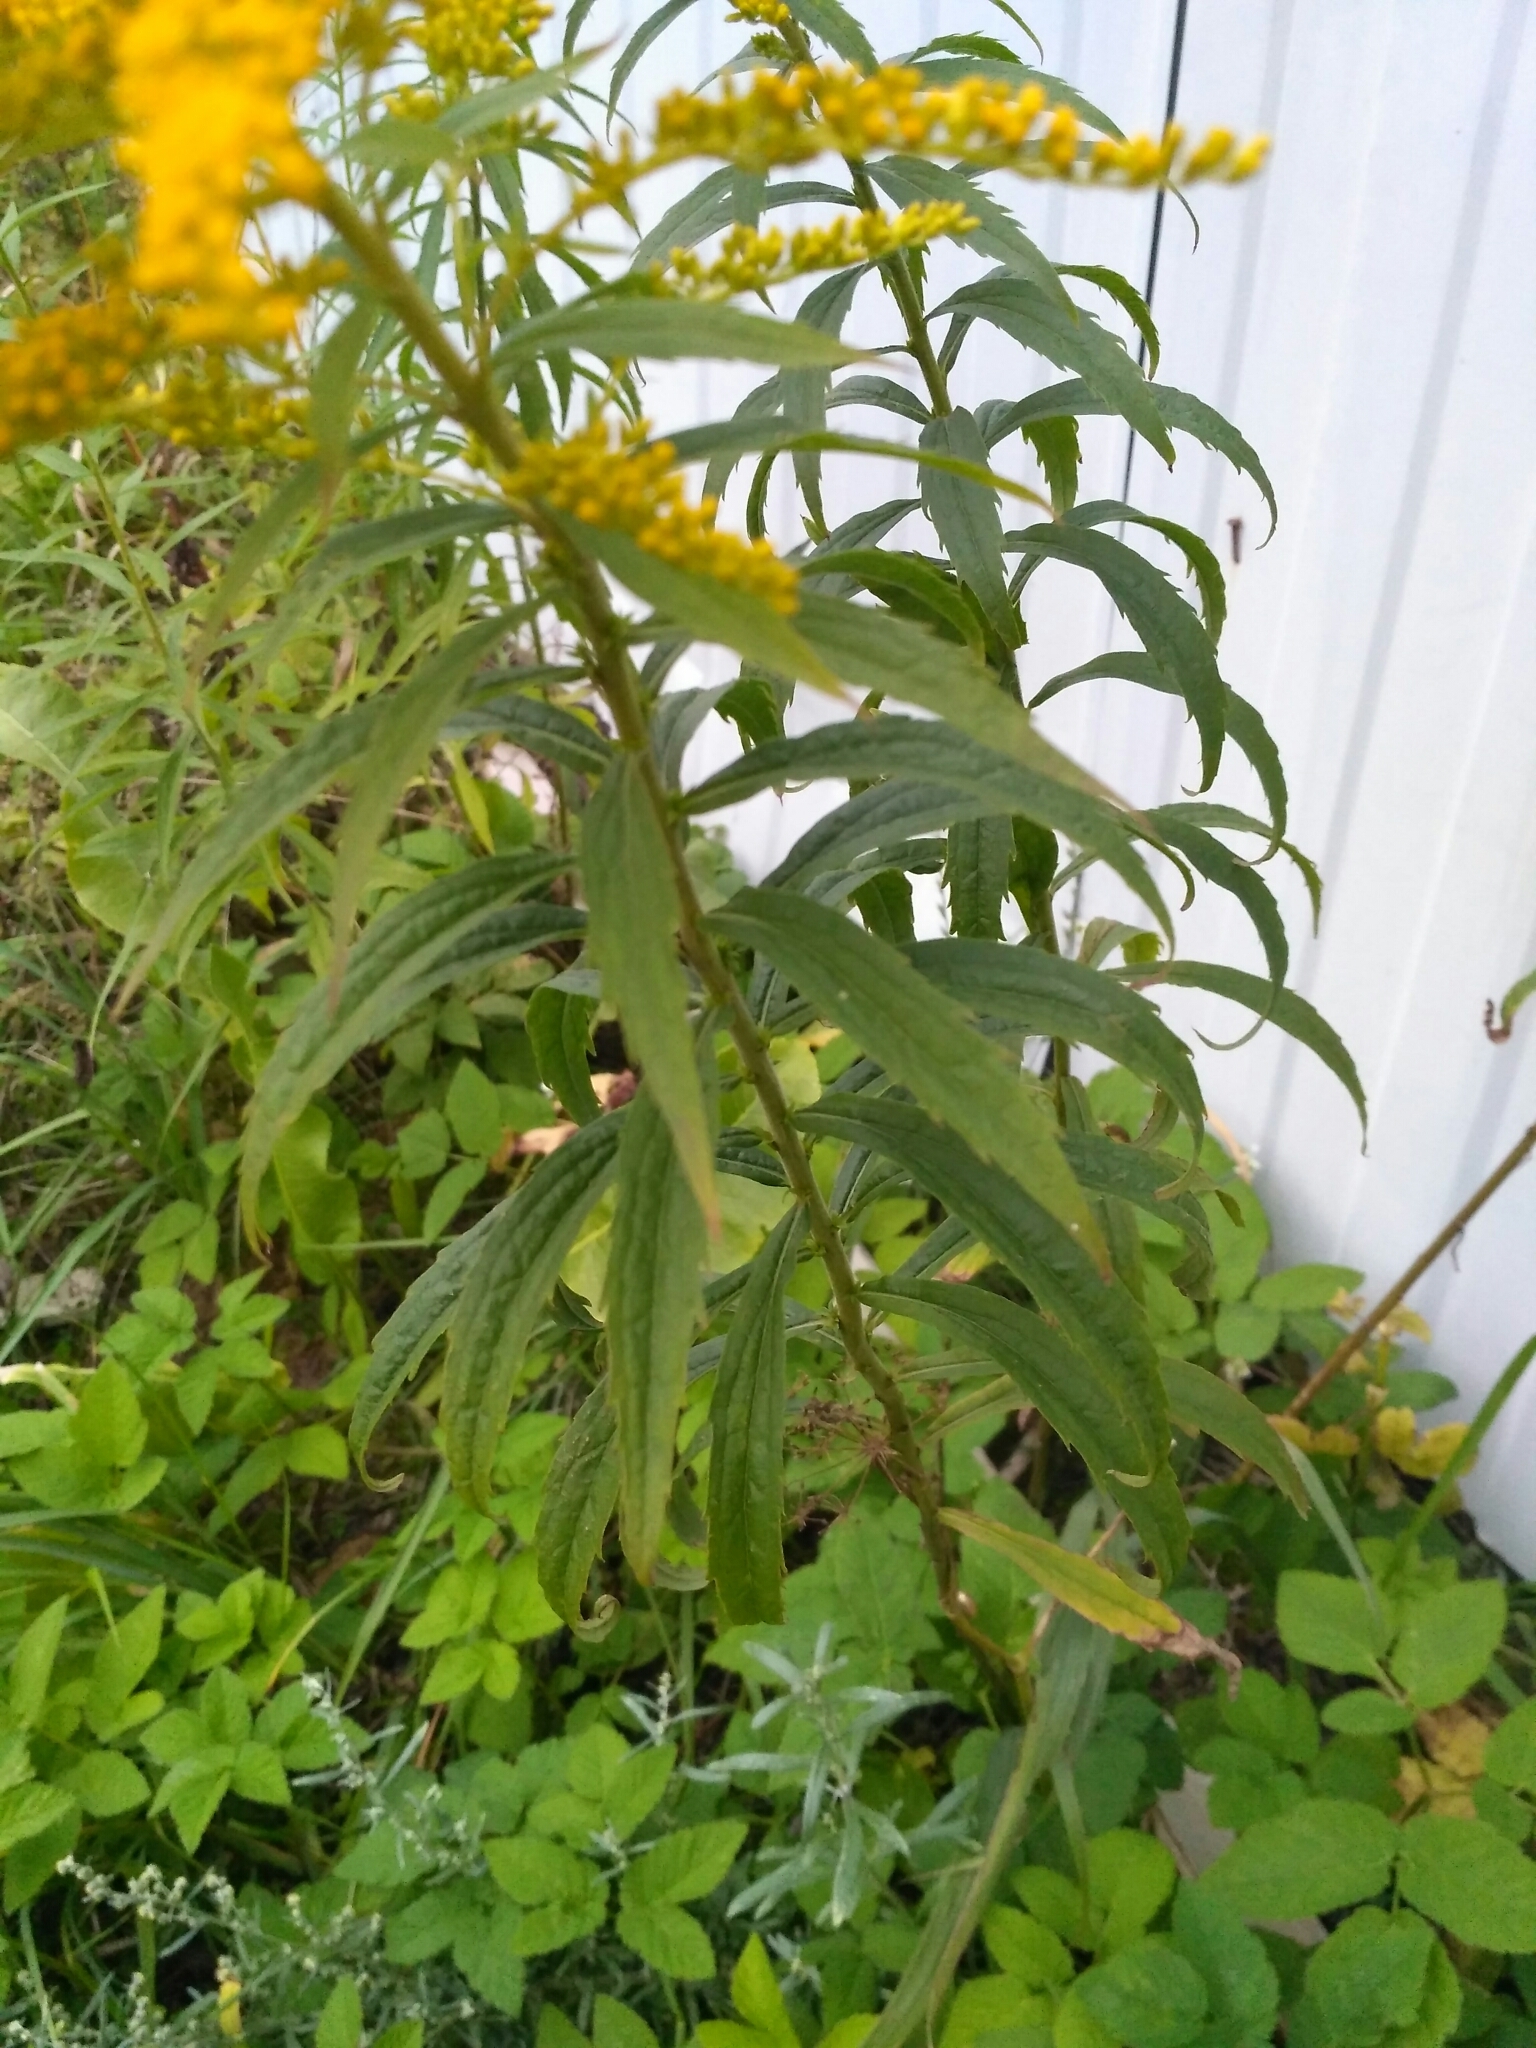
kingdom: Plantae
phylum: Tracheophyta
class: Magnoliopsida
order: Asterales
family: Asteraceae
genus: Solidago
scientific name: Solidago canadensis
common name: Canada goldenrod
